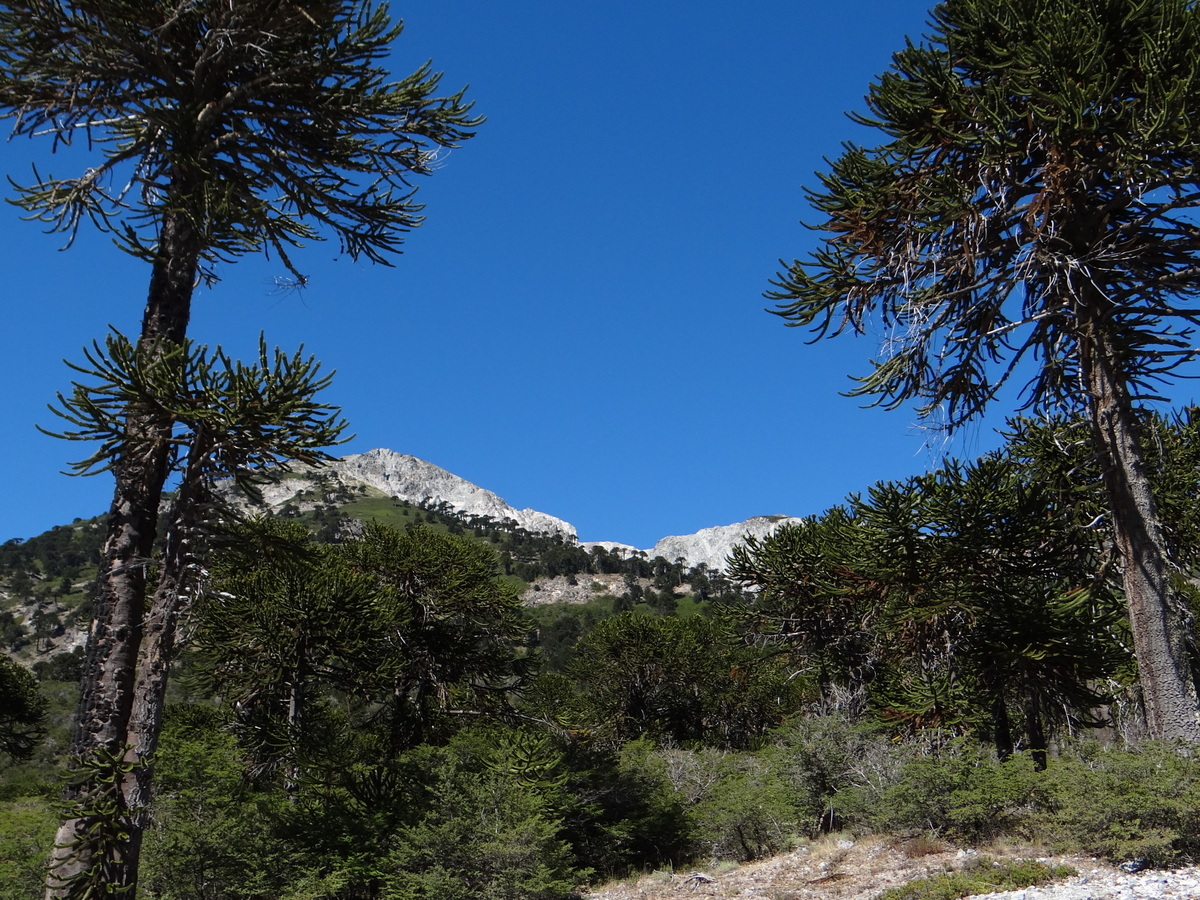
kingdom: Plantae
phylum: Tracheophyta
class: Pinopsida
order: Pinales
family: Araucariaceae
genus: Araucaria
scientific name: Araucaria araucana
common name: Monkey-puzzle
